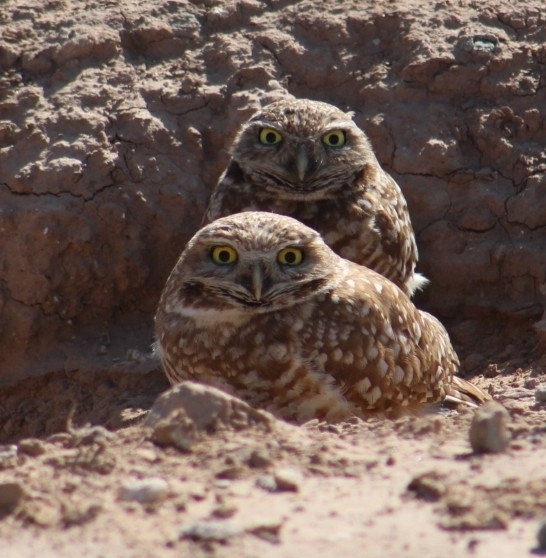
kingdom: Animalia
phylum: Chordata
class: Aves
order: Strigiformes
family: Strigidae
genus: Athene
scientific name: Athene cunicularia
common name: Burrowing owl
